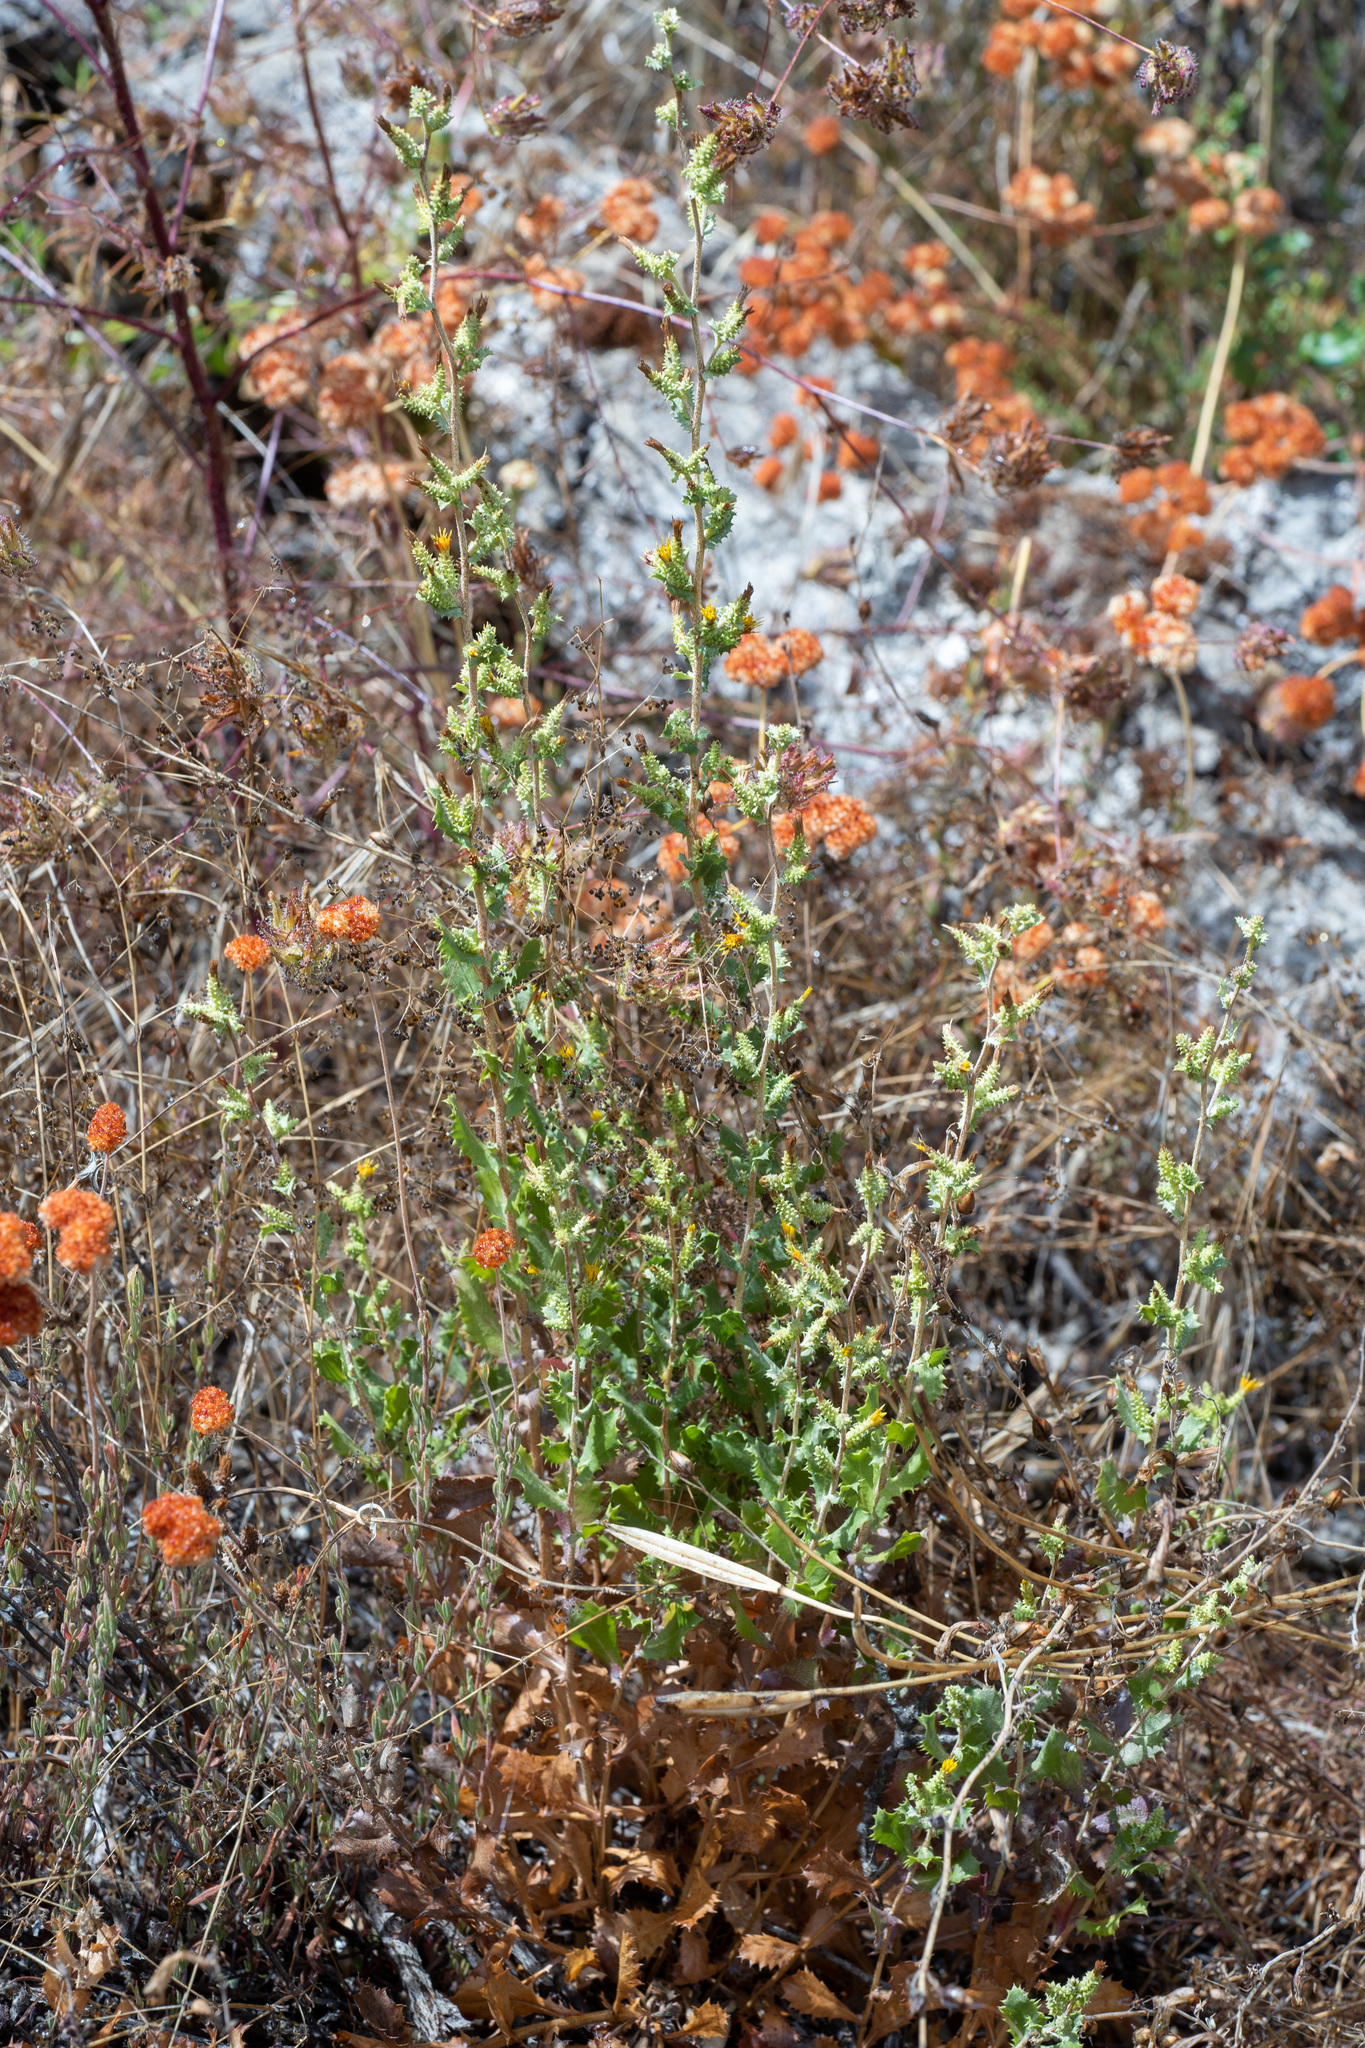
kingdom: Plantae
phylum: Tracheophyta
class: Magnoliopsida
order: Asterales
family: Asteraceae
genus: Hazardia
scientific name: Hazardia squarrosa
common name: Saw-tooth goldenbush
